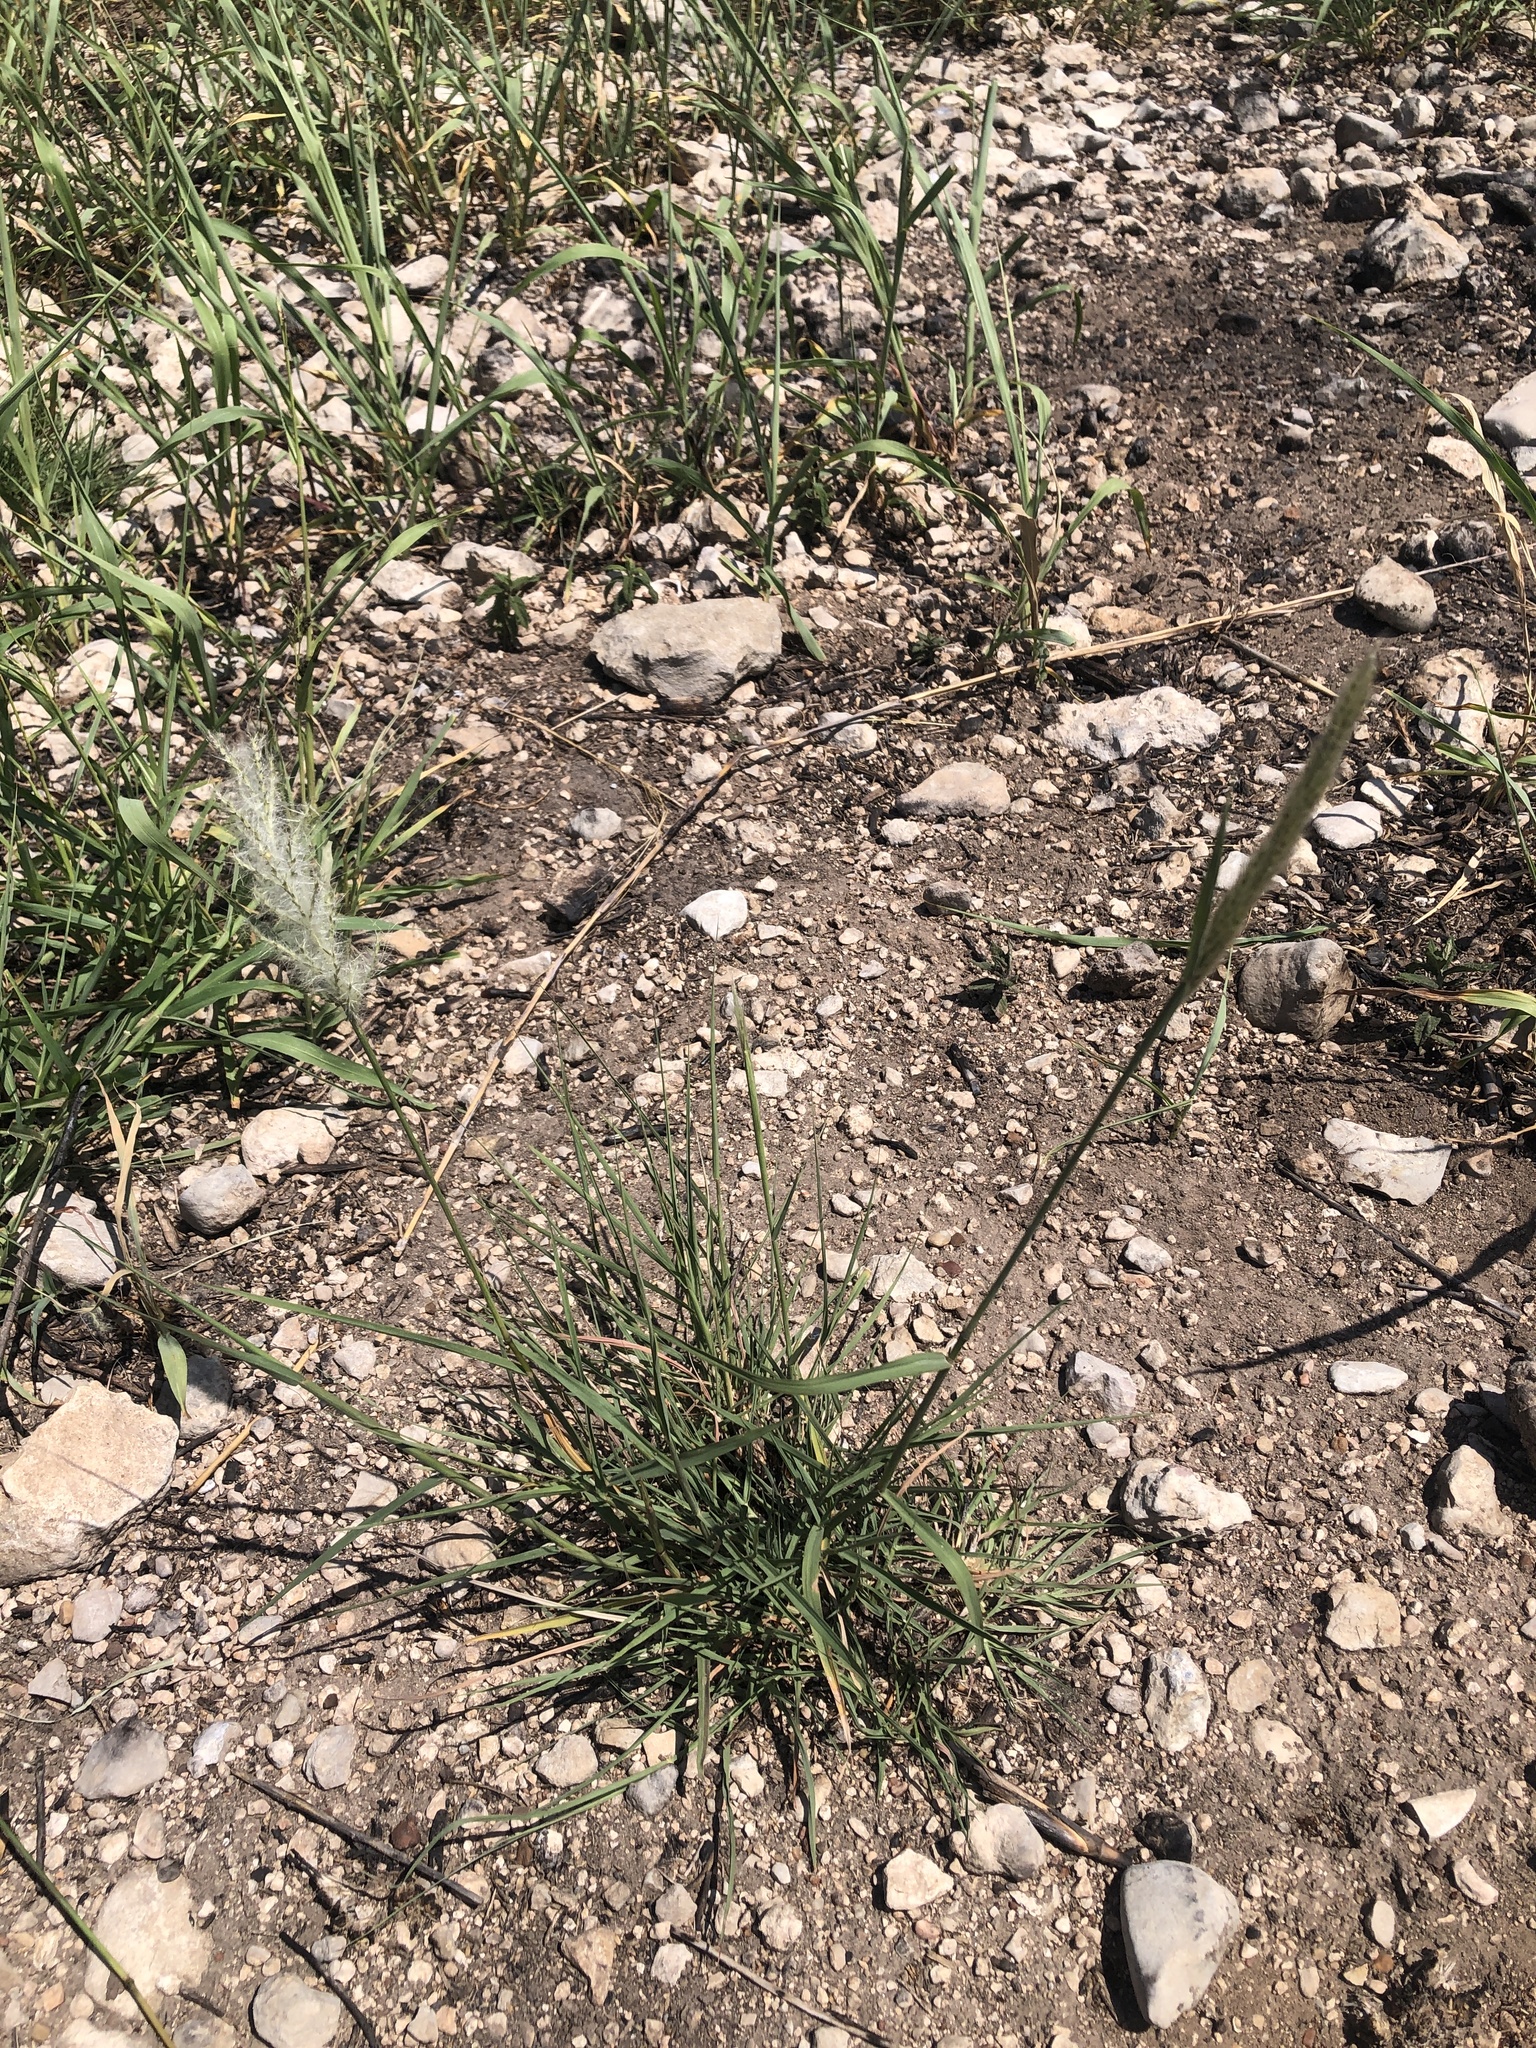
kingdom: Plantae
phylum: Tracheophyta
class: Liliopsida
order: Poales
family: Poaceae
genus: Bothriochloa
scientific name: Bothriochloa barbinodis
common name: Cane bluestem
